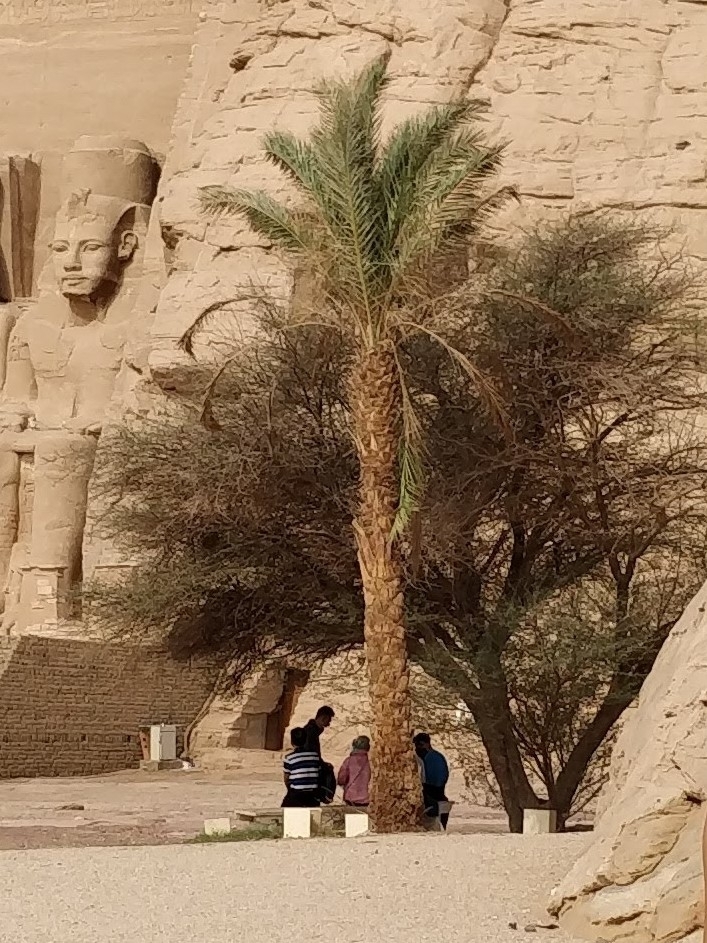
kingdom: Plantae
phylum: Tracheophyta
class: Liliopsida
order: Arecales
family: Arecaceae
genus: Phoenix
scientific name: Phoenix dactylifera
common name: Date palm
